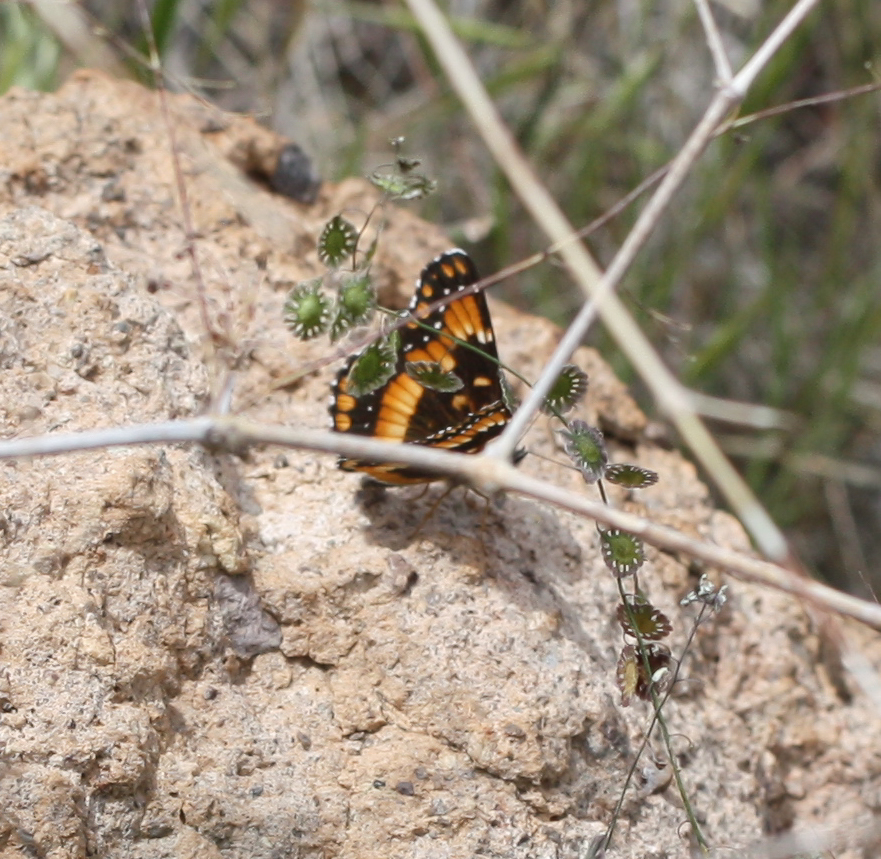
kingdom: Animalia
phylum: Arthropoda
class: Insecta
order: Lepidoptera
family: Nymphalidae
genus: Chlosyne
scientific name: Chlosyne californica
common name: California patch
